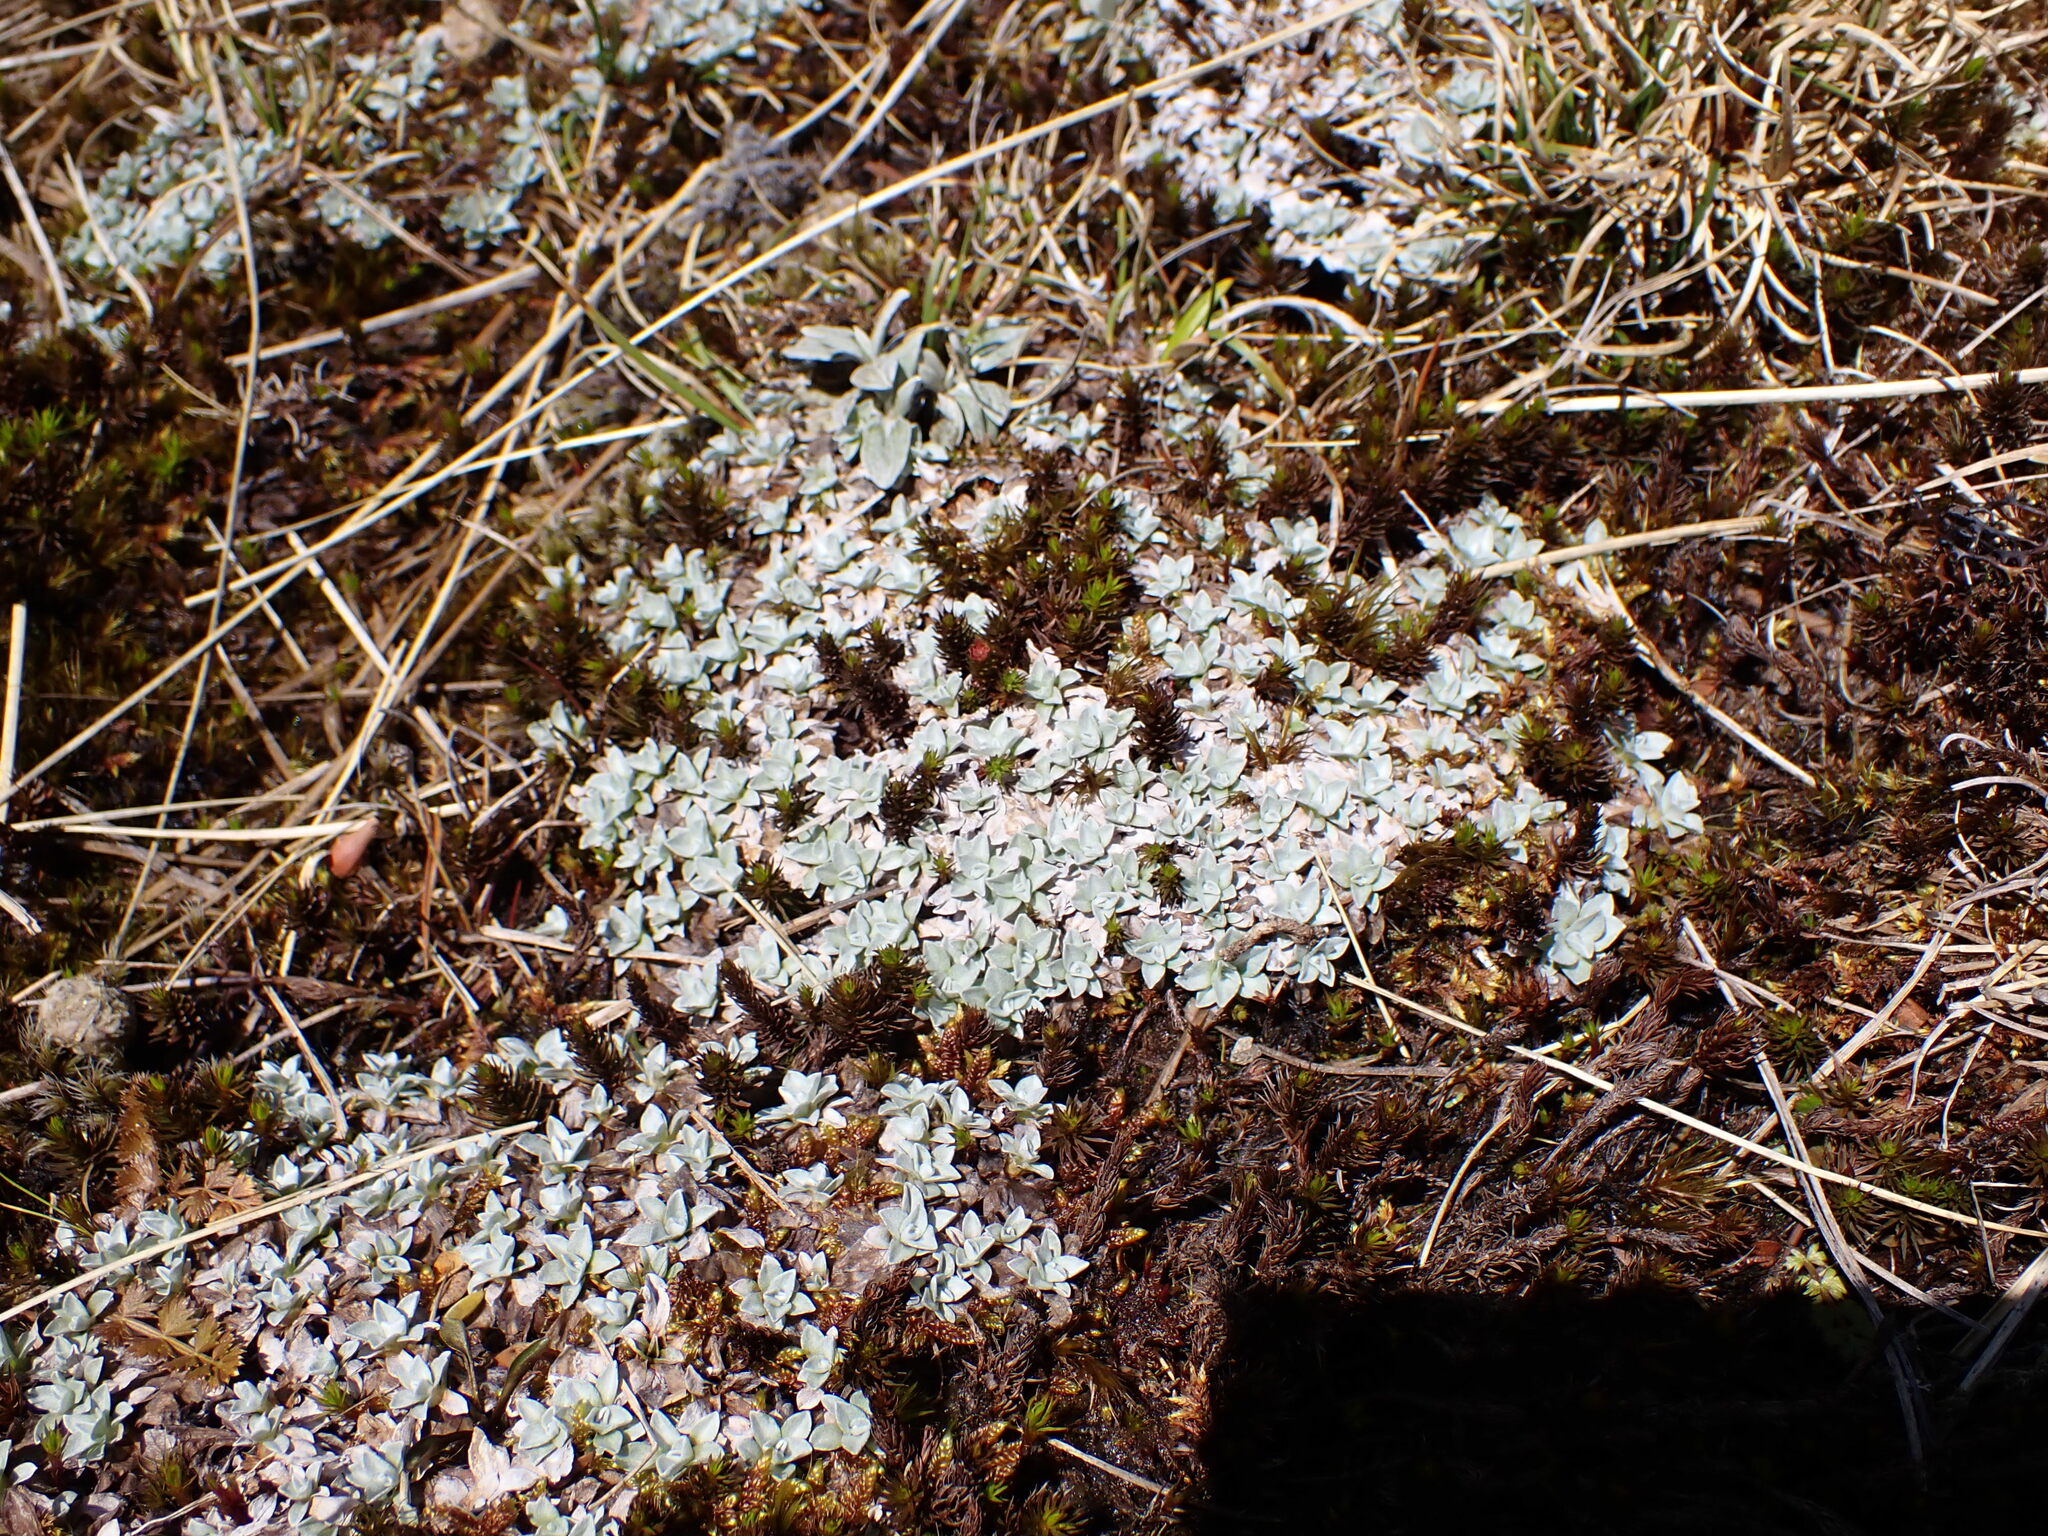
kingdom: Plantae
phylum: Tracheophyta
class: Magnoliopsida
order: Asterales
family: Asteraceae
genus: Argyrotegium
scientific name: Argyrotegium mackayi
